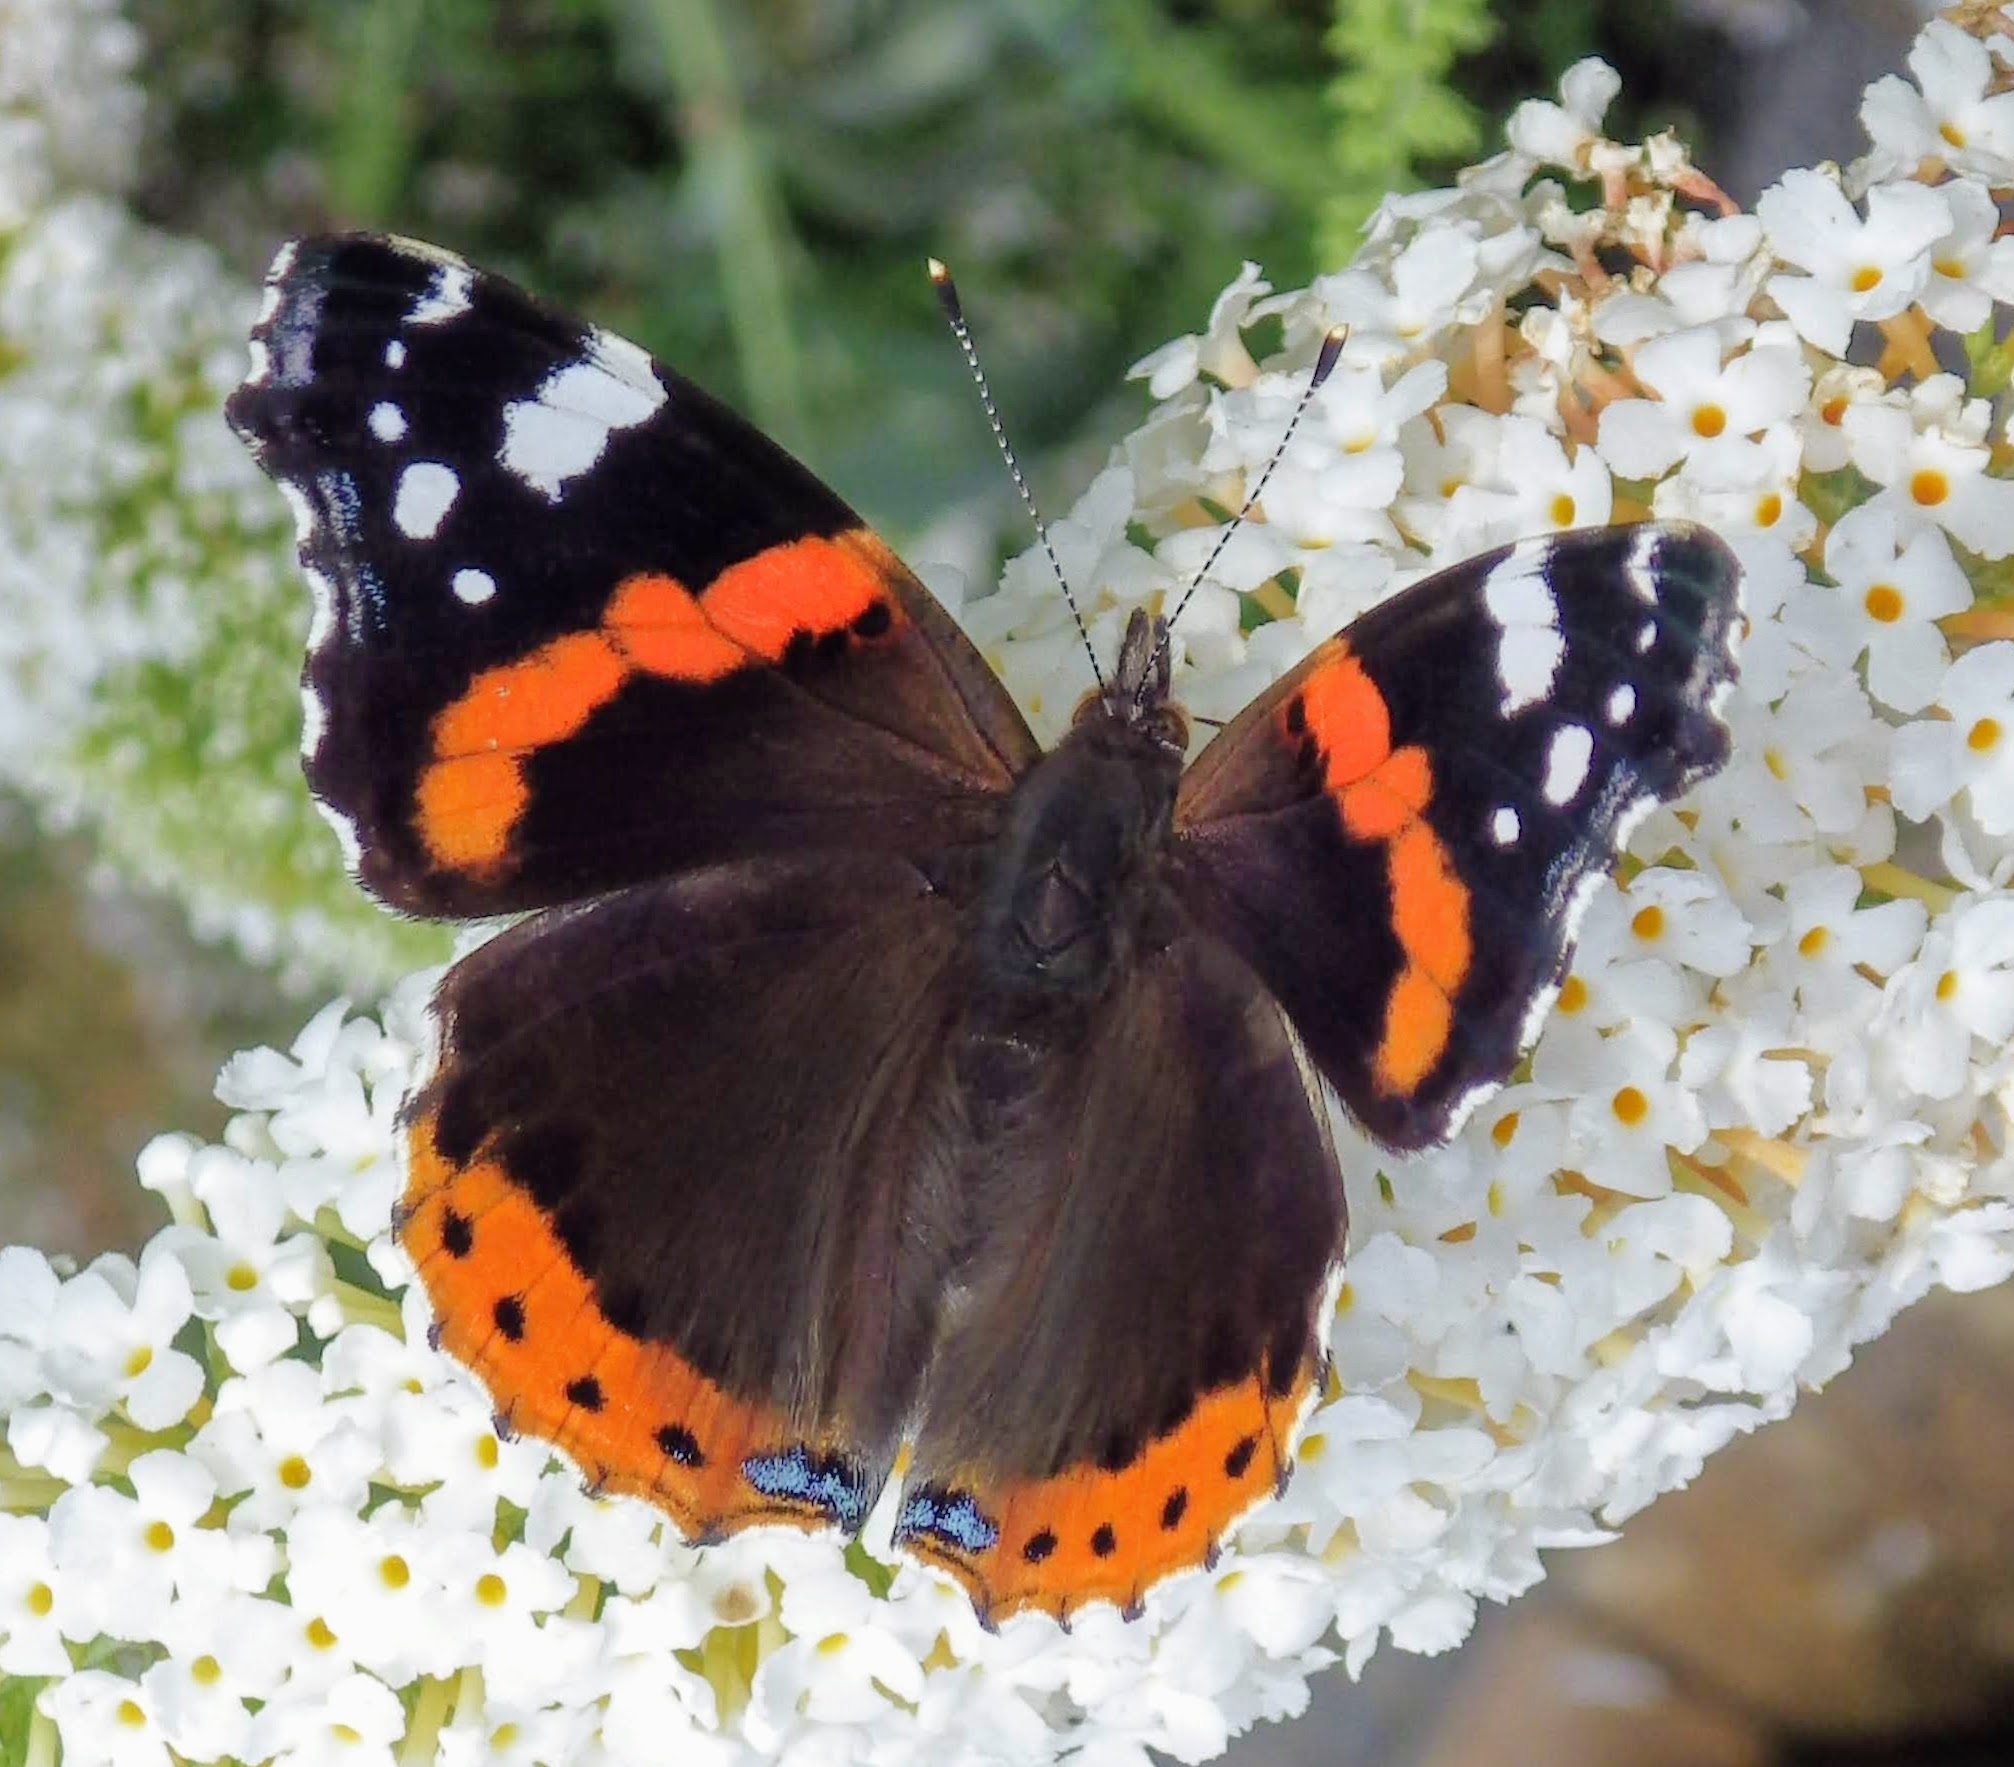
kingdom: Animalia
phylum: Arthropoda
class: Insecta
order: Lepidoptera
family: Nymphalidae
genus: Vanessa
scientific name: Vanessa atalanta
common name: Red admiral
